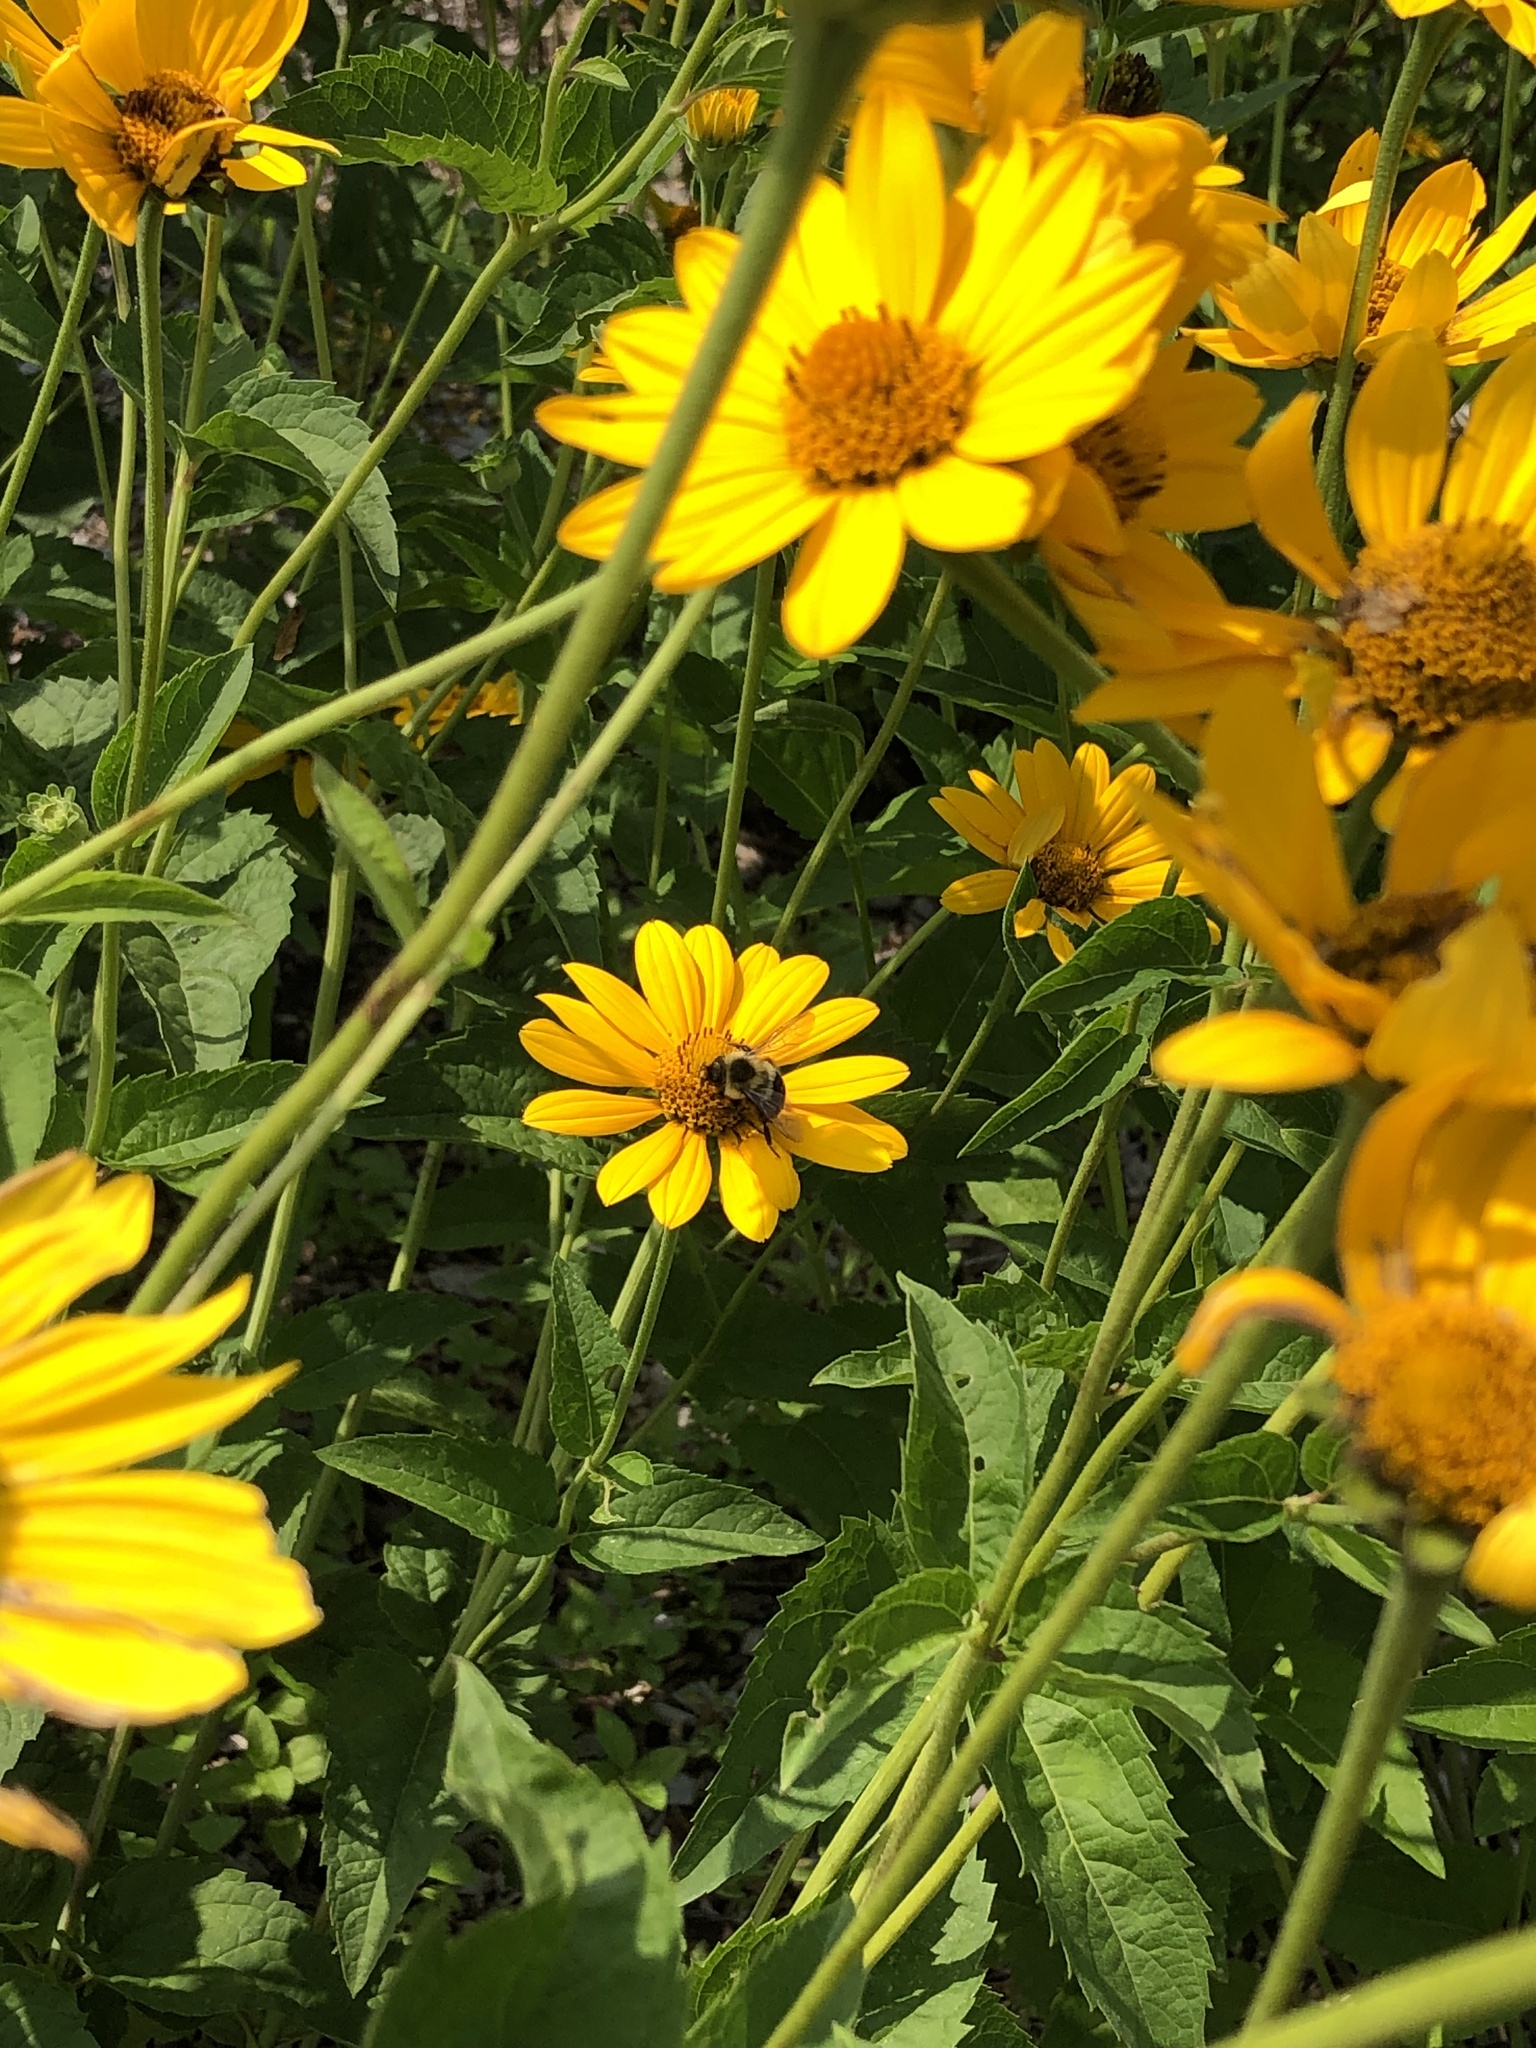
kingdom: Animalia
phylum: Arthropoda
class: Insecta
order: Hymenoptera
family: Apidae
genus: Bombus
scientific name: Bombus impatiens
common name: Common eastern bumble bee
